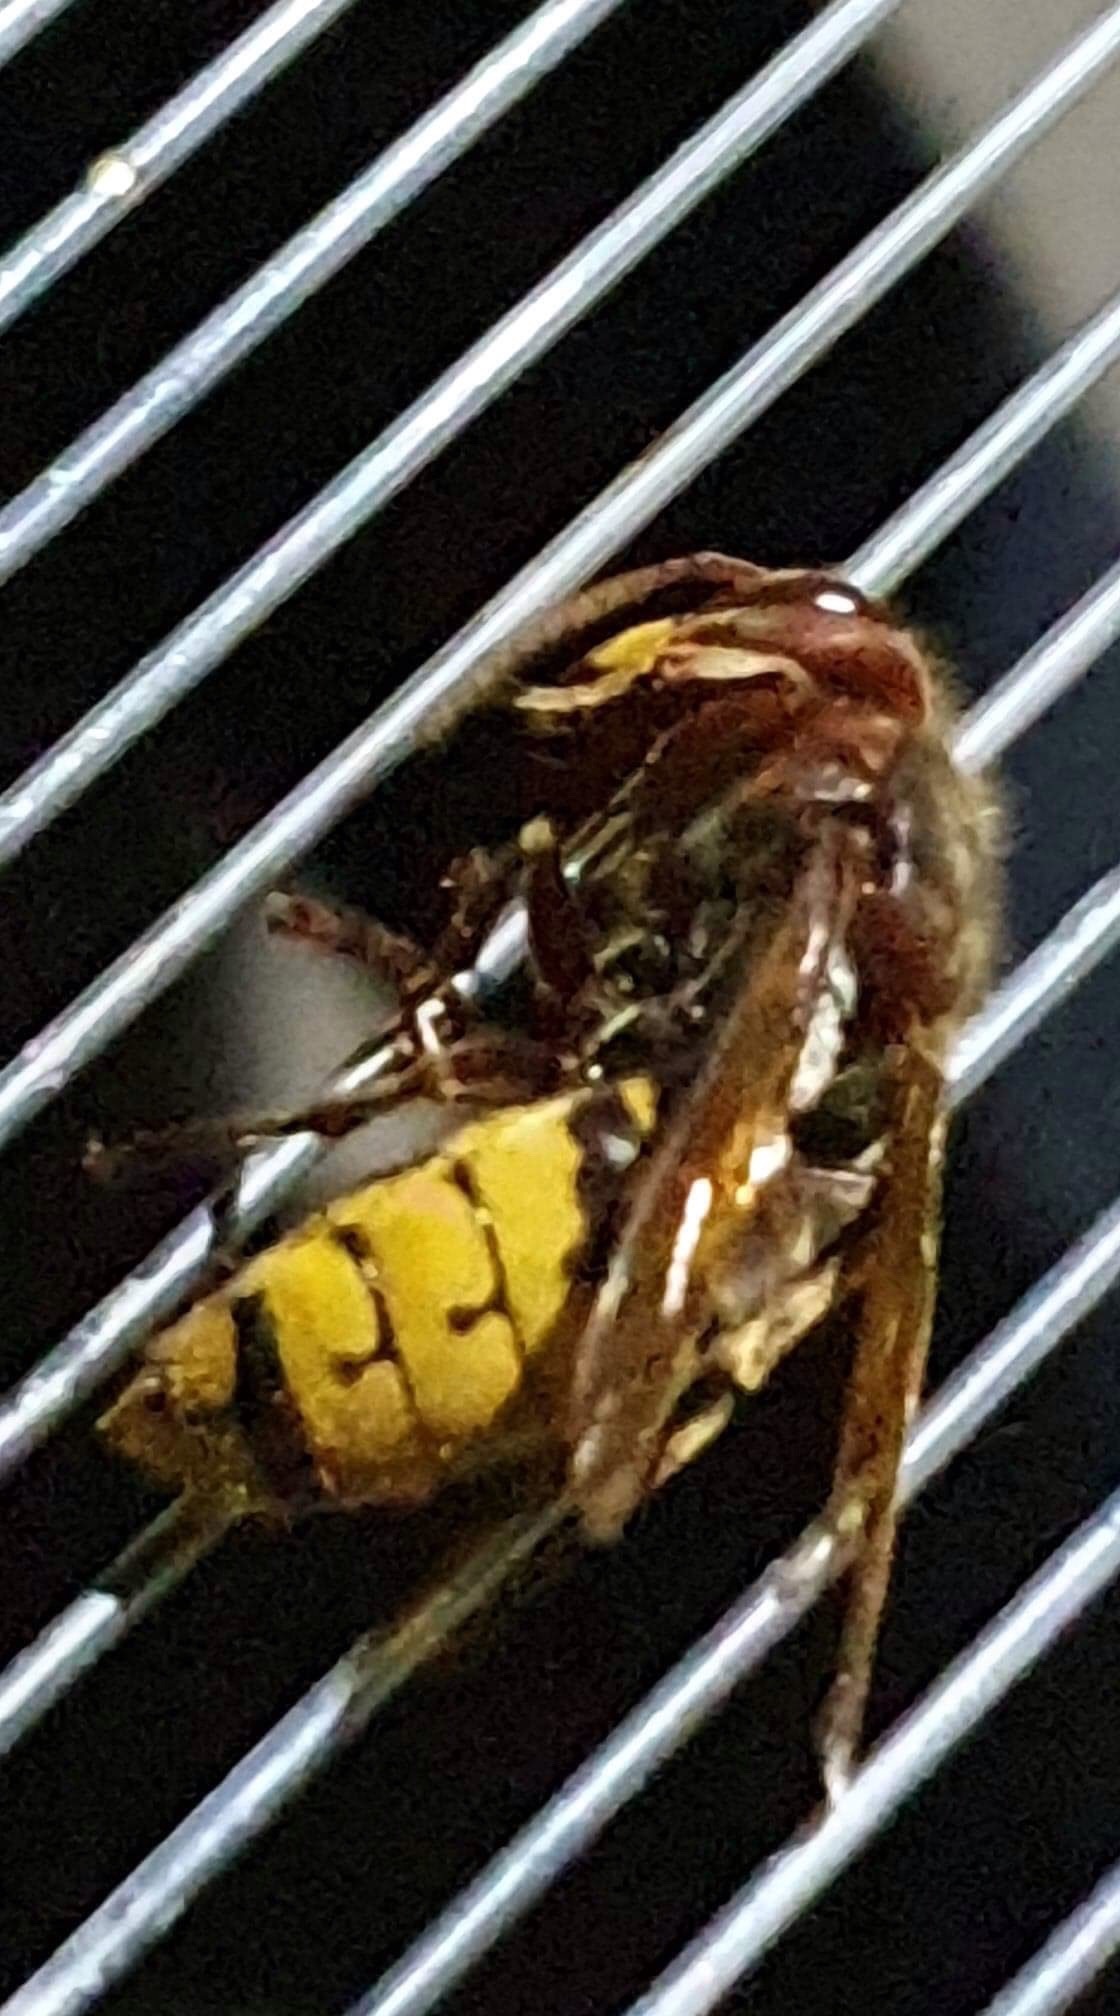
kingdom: Animalia
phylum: Arthropoda
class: Insecta
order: Hymenoptera
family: Vespidae
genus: Vespa
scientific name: Vespa crabro
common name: Hornet
